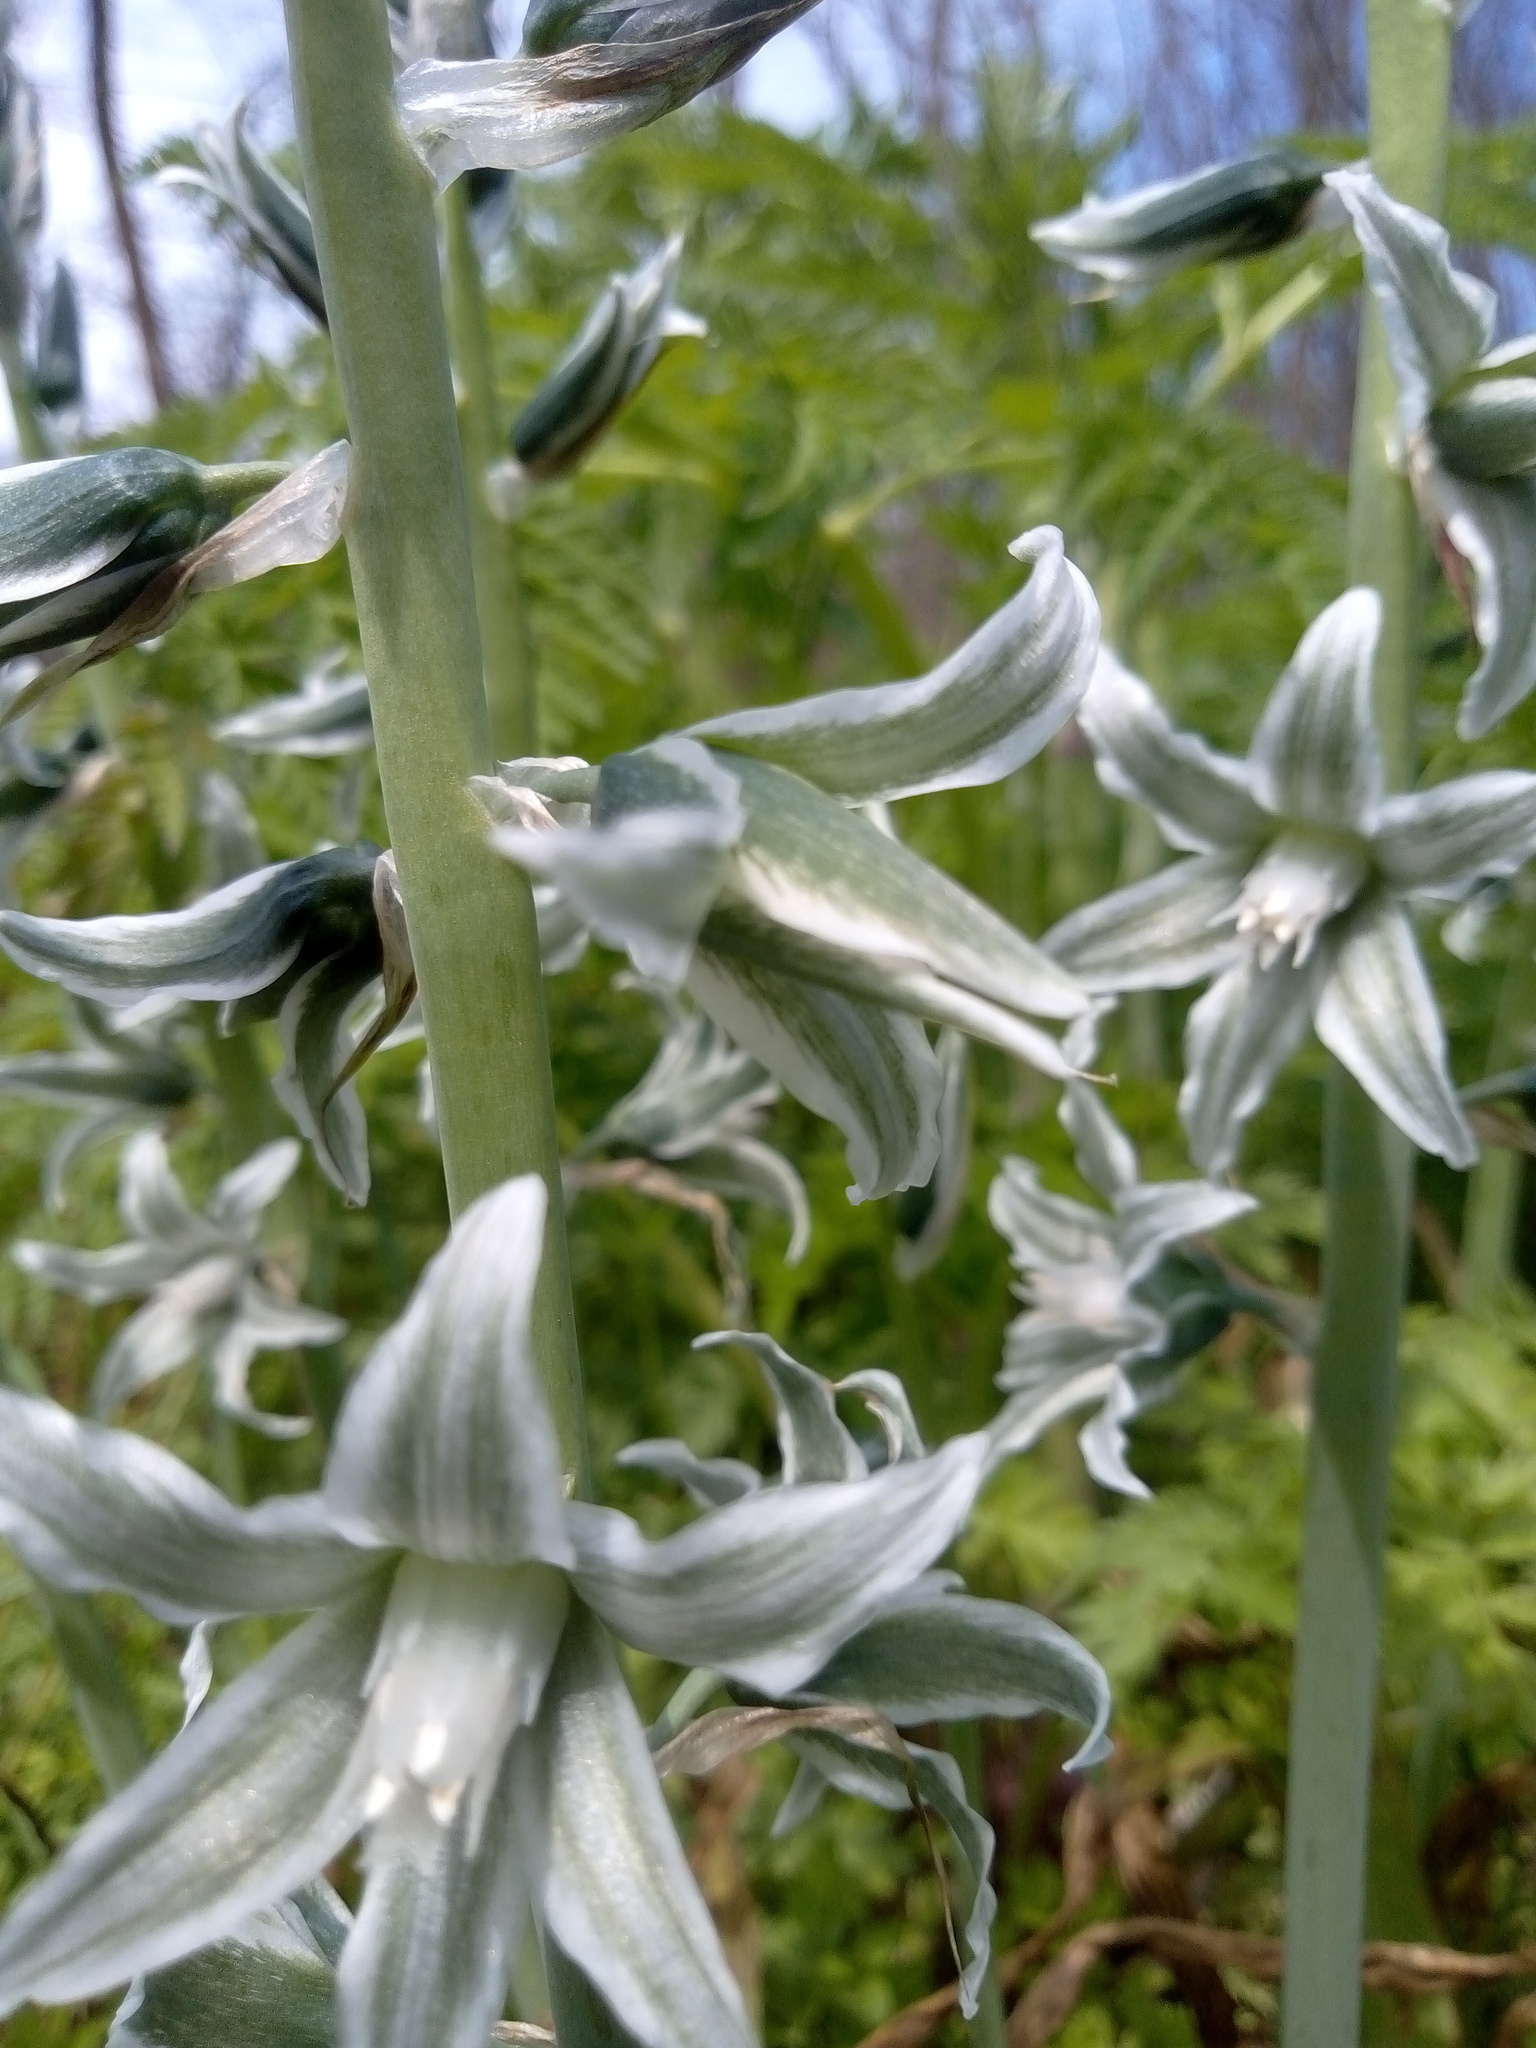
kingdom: Plantae
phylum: Tracheophyta
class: Liliopsida
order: Asparagales
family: Asparagaceae
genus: Ornithogalum
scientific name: Ornithogalum boucheanum
